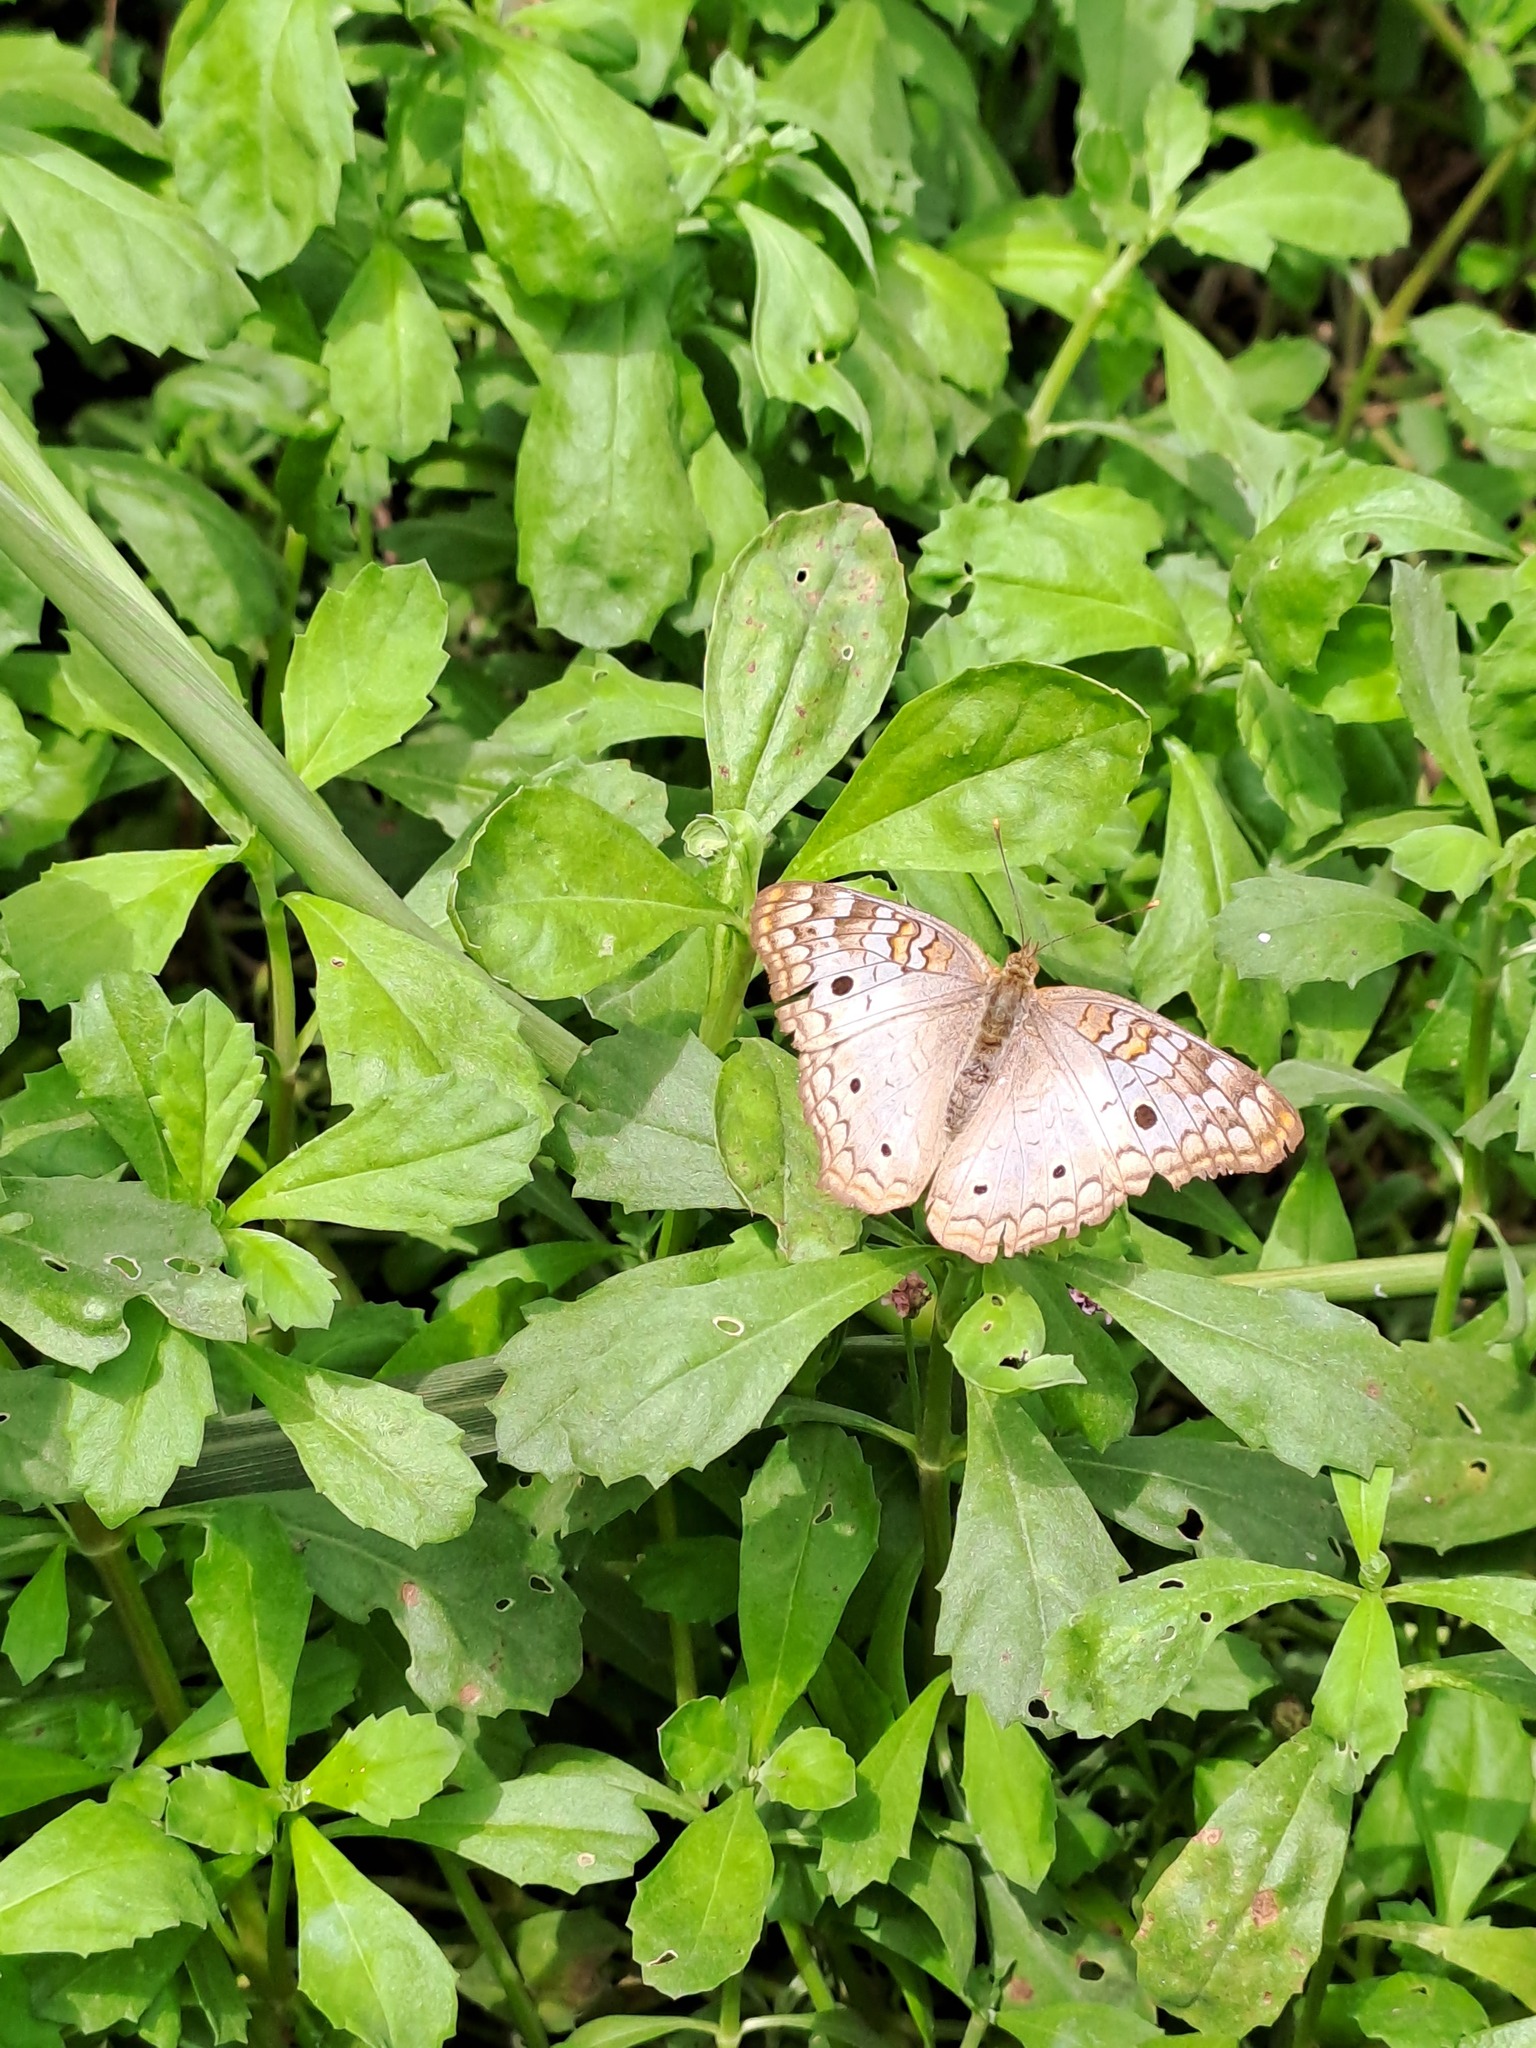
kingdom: Animalia
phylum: Arthropoda
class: Insecta
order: Lepidoptera
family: Nymphalidae
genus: Anartia
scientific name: Anartia jatrophae
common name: White peacock
